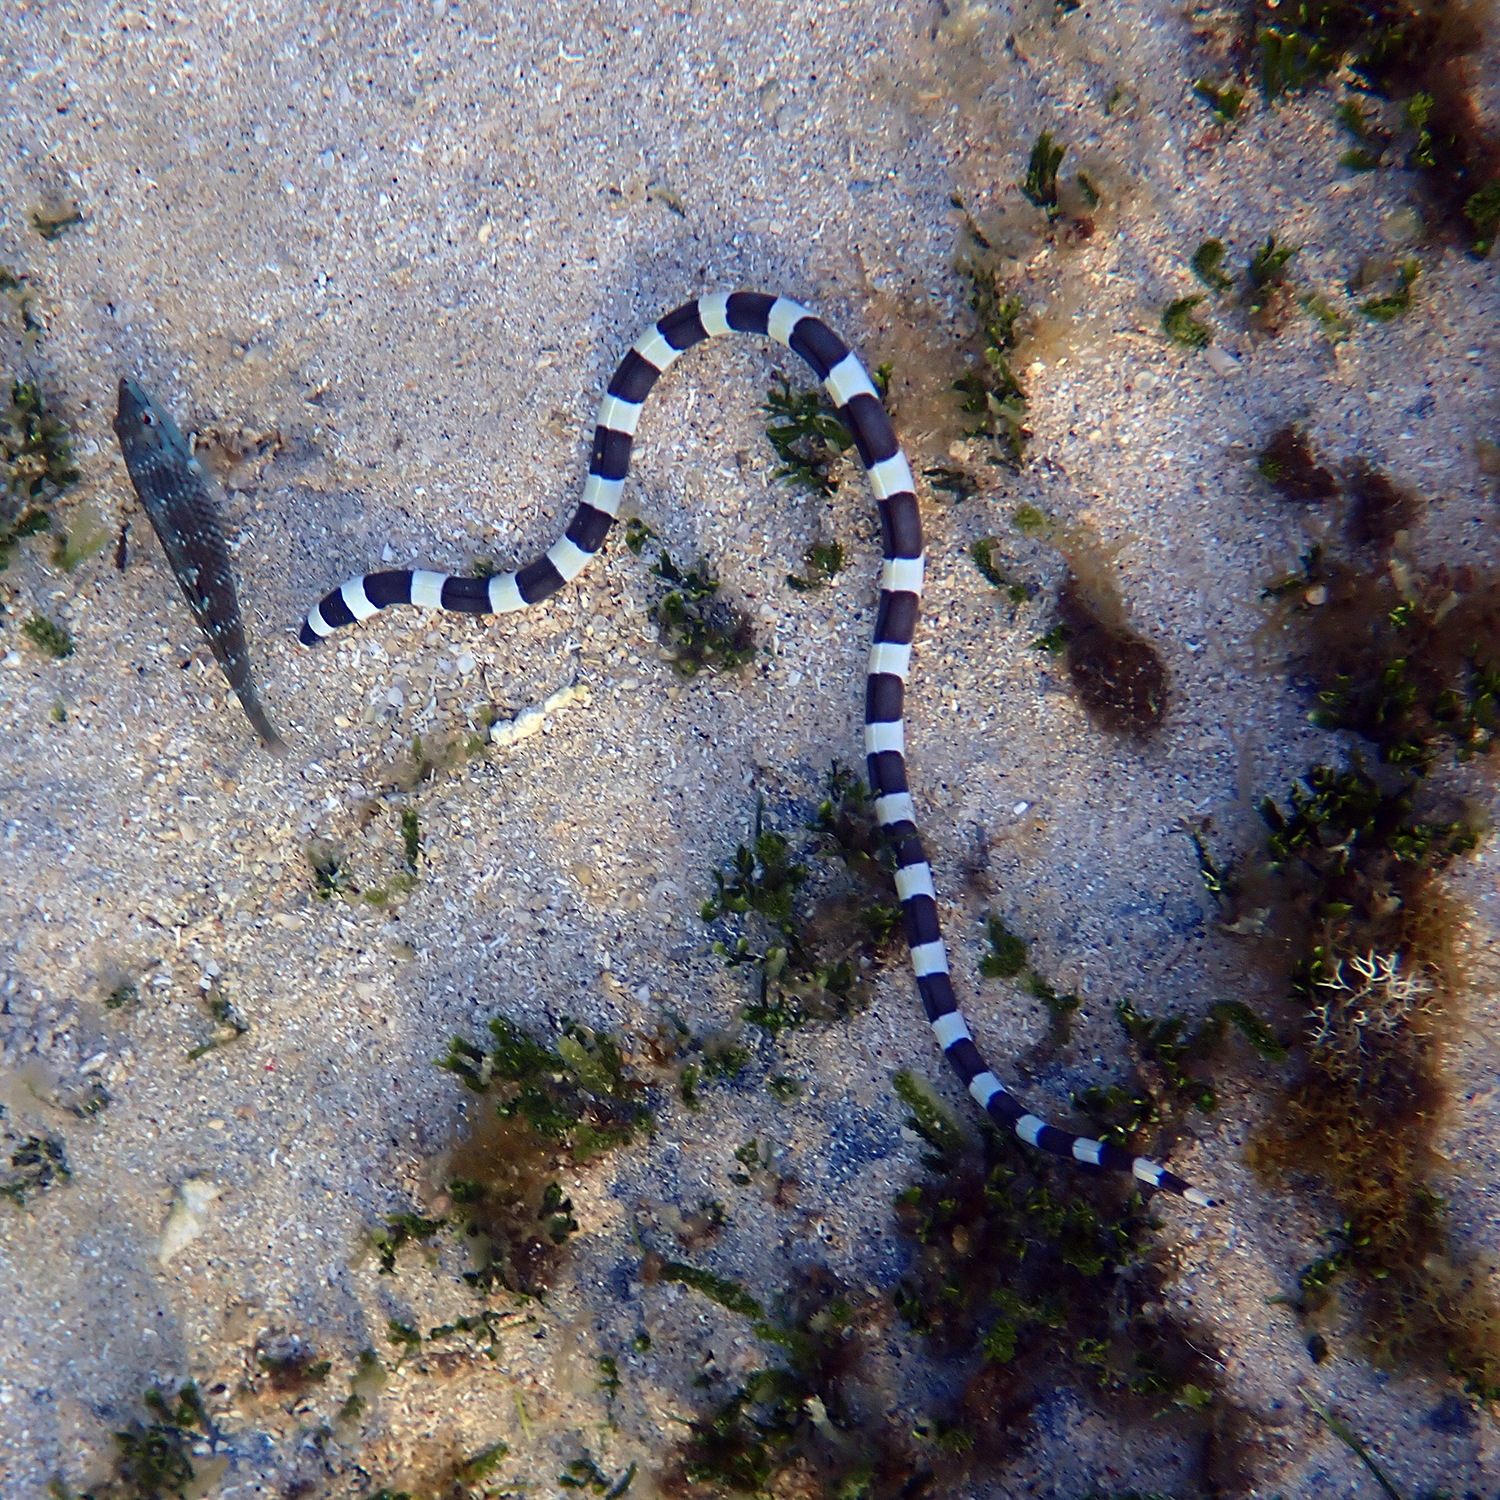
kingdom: Animalia
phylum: Chordata
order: Anguilliformes
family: Ophichthidae
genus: Leiuranus
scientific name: Leiuranus semicinctus
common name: Saddled snake eel
